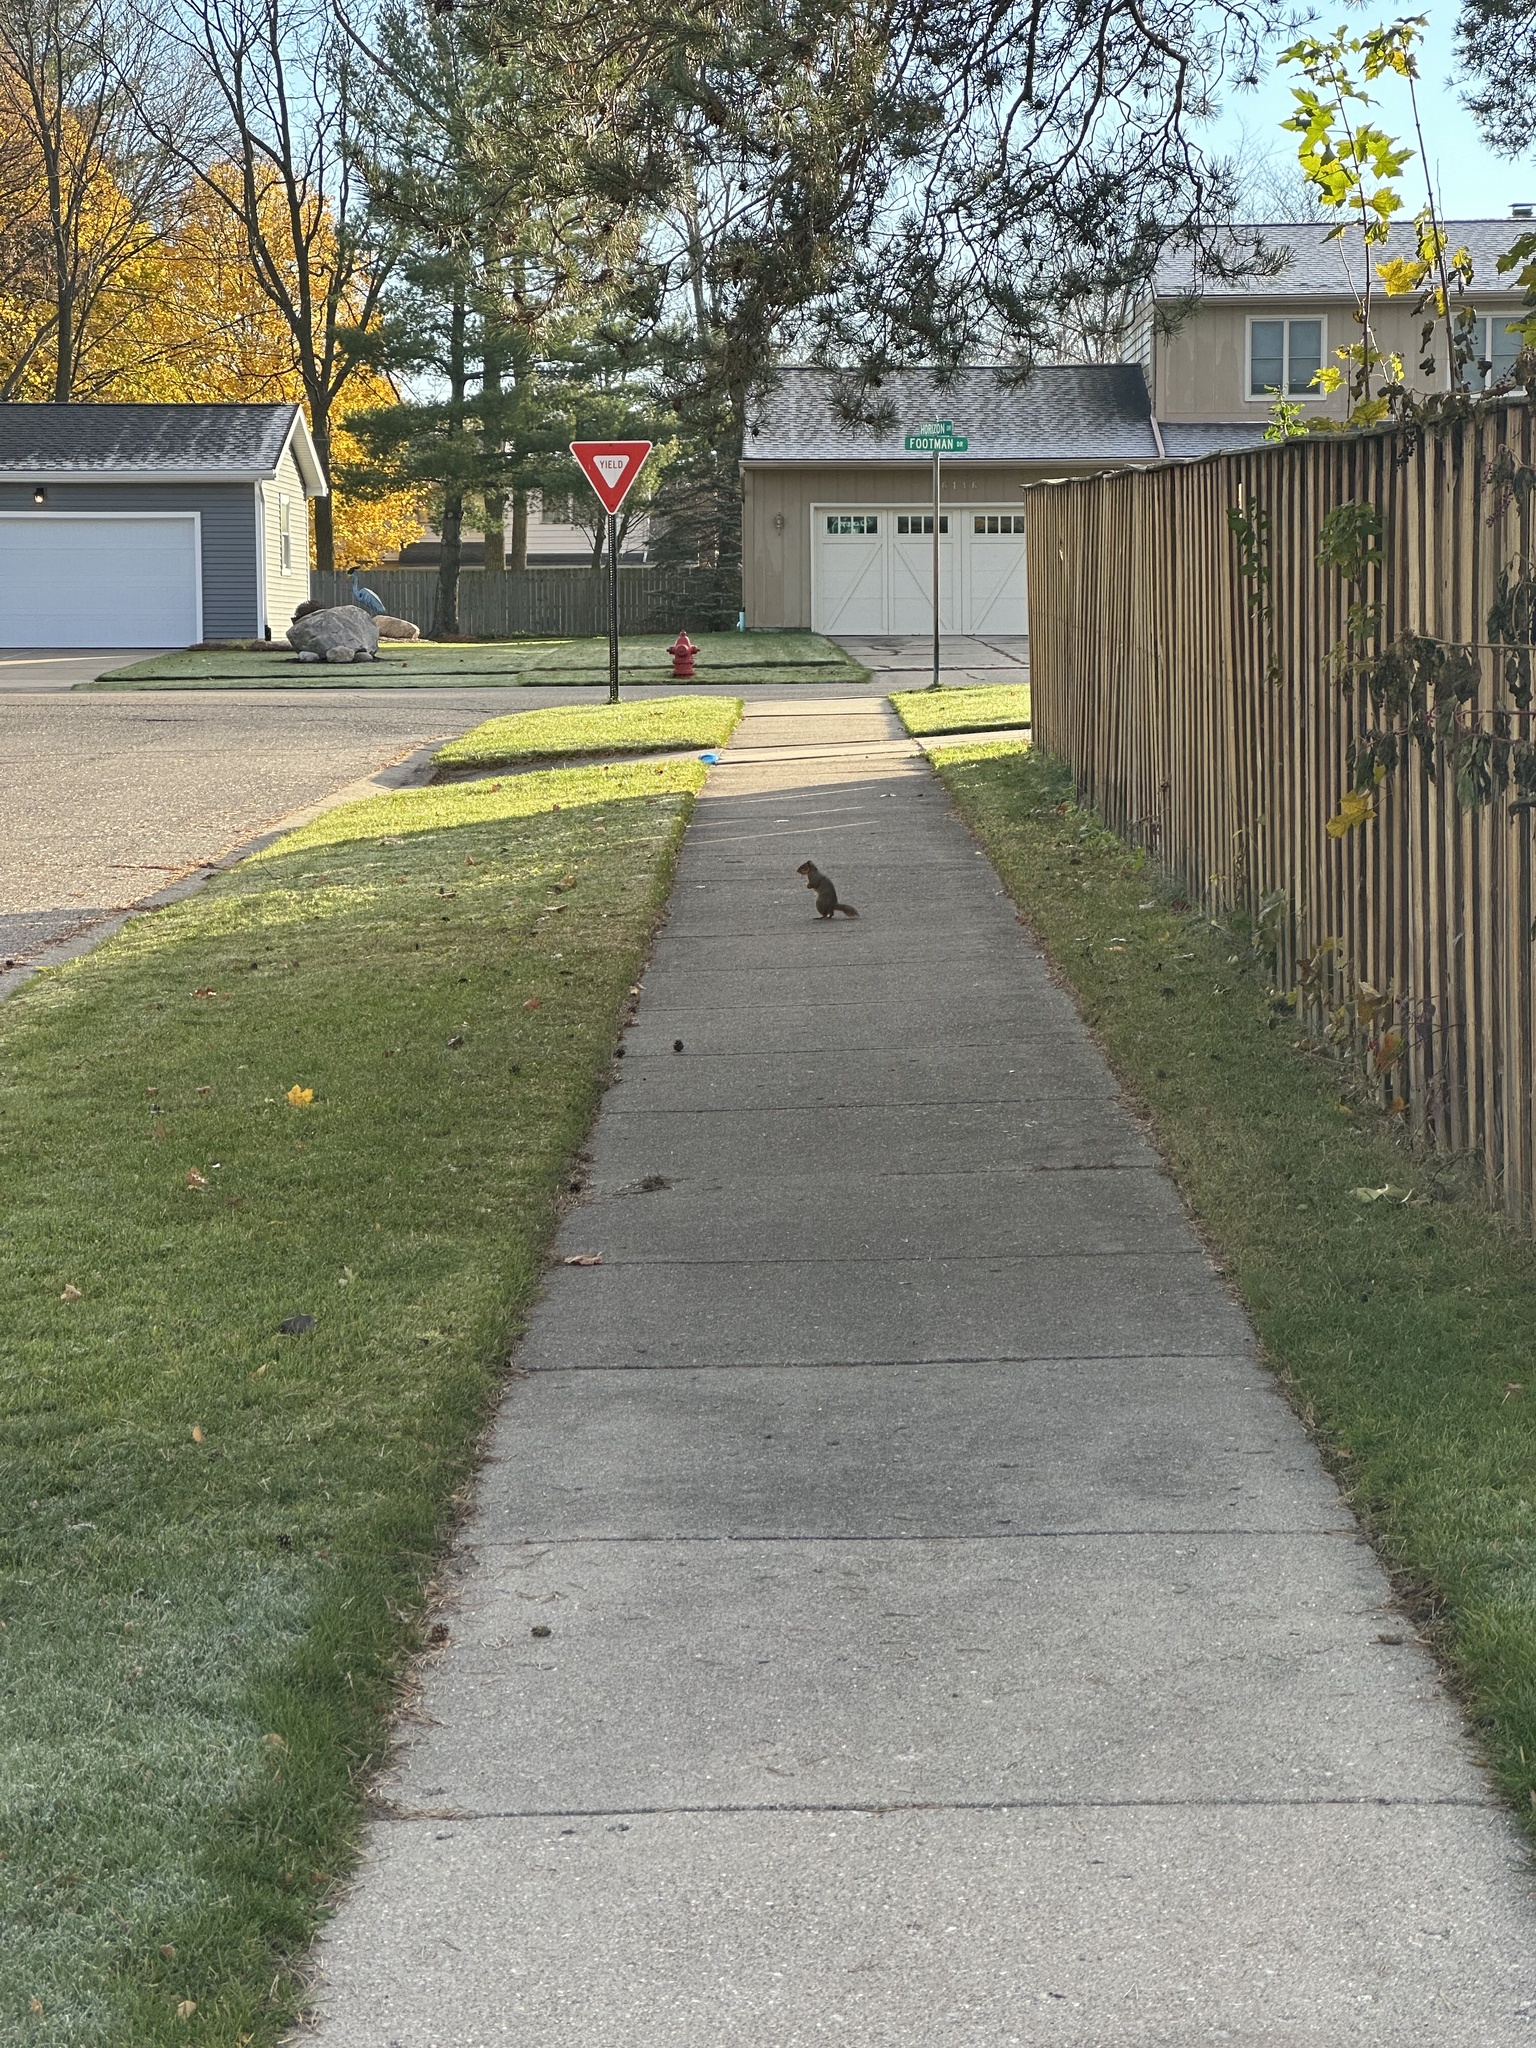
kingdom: Animalia
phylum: Chordata
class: Mammalia
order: Rodentia
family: Sciuridae
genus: Sciurus
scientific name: Sciurus niger
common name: Fox squirrel
